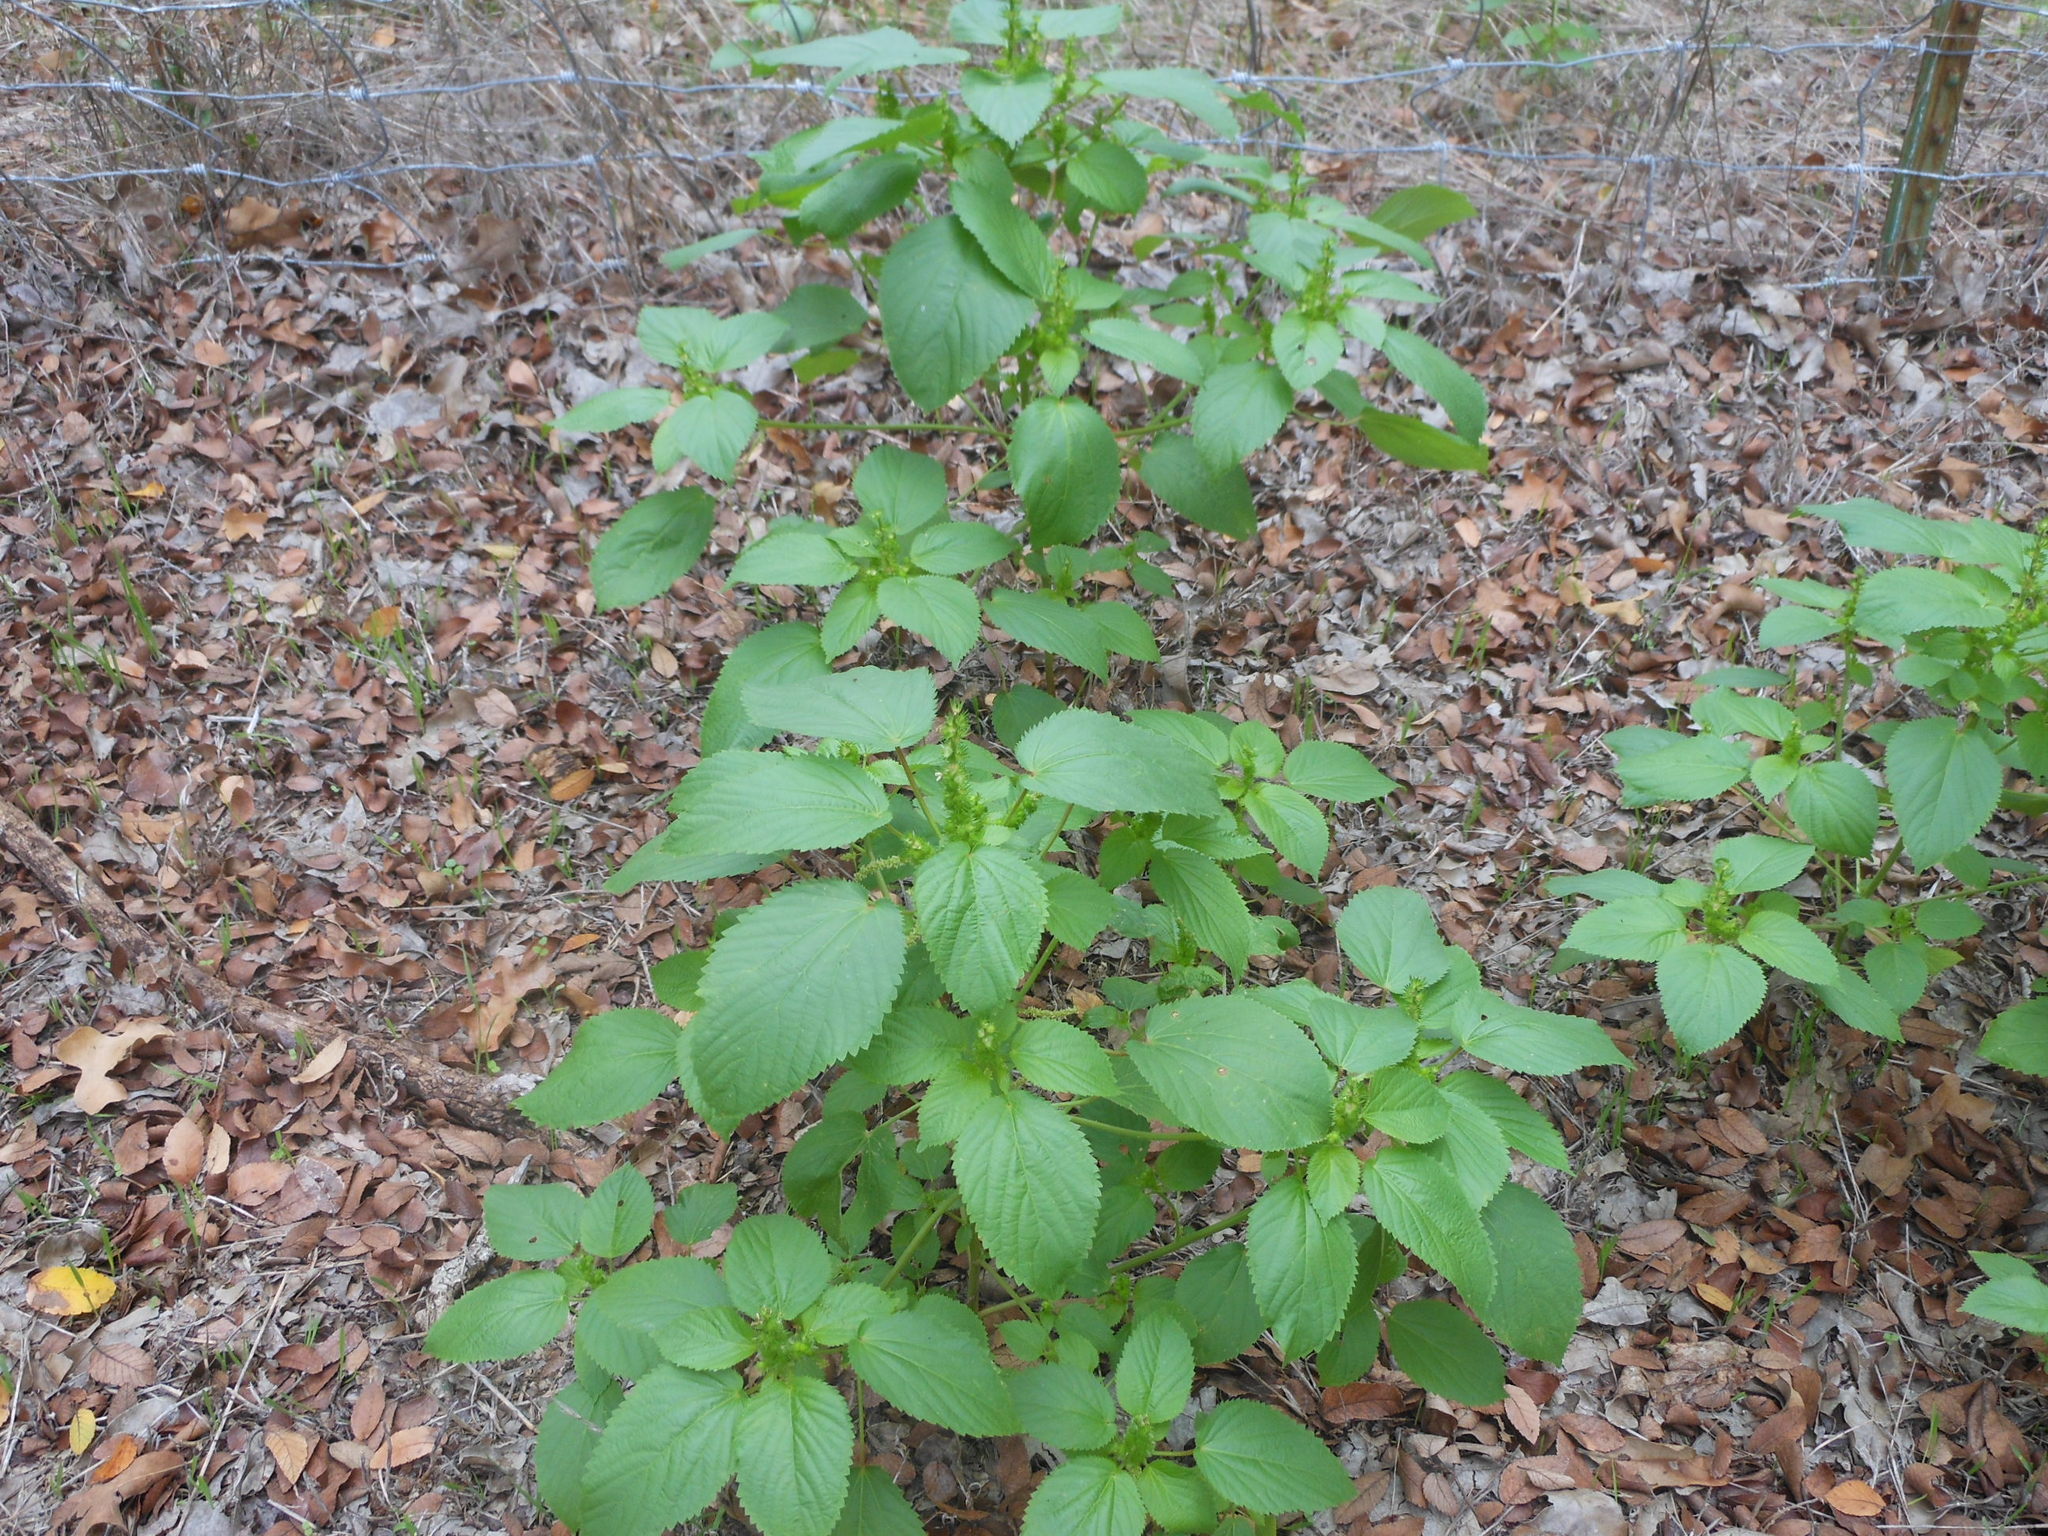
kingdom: Plantae
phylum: Tracheophyta
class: Magnoliopsida
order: Malpighiales
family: Euphorbiaceae
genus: Acalypha
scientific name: Acalypha ostryifolia
